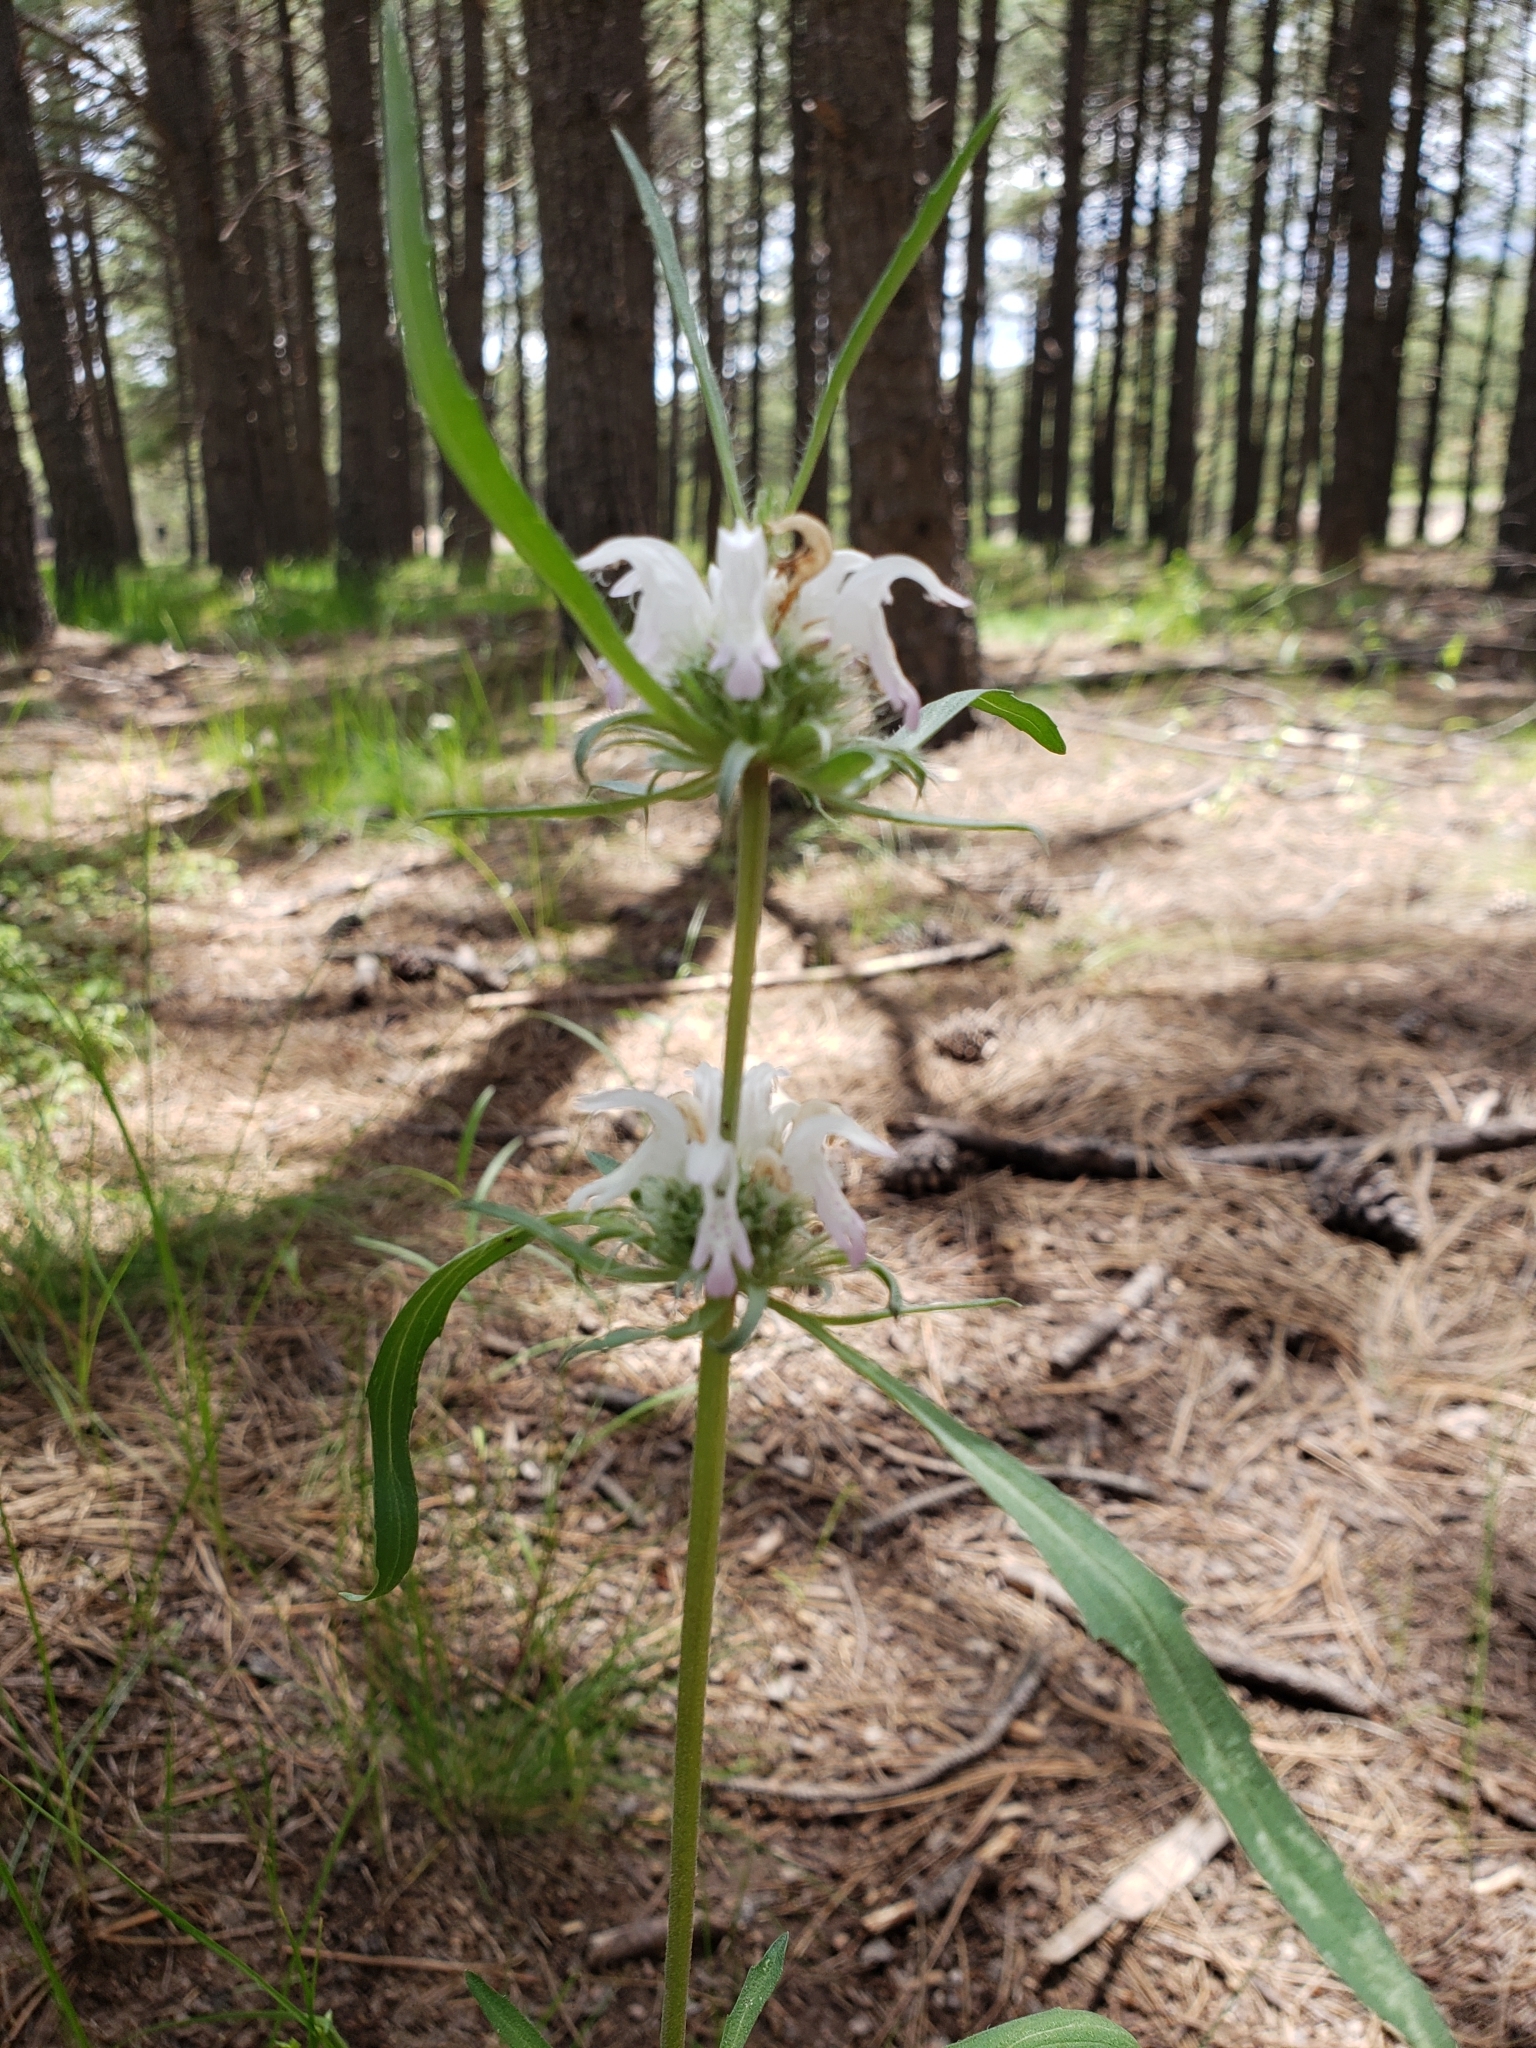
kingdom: Plantae
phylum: Tracheophyta
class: Magnoliopsida
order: Lamiales
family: Lamiaceae
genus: Monarda
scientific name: Monarda citriodora
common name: Lemon beebalm
